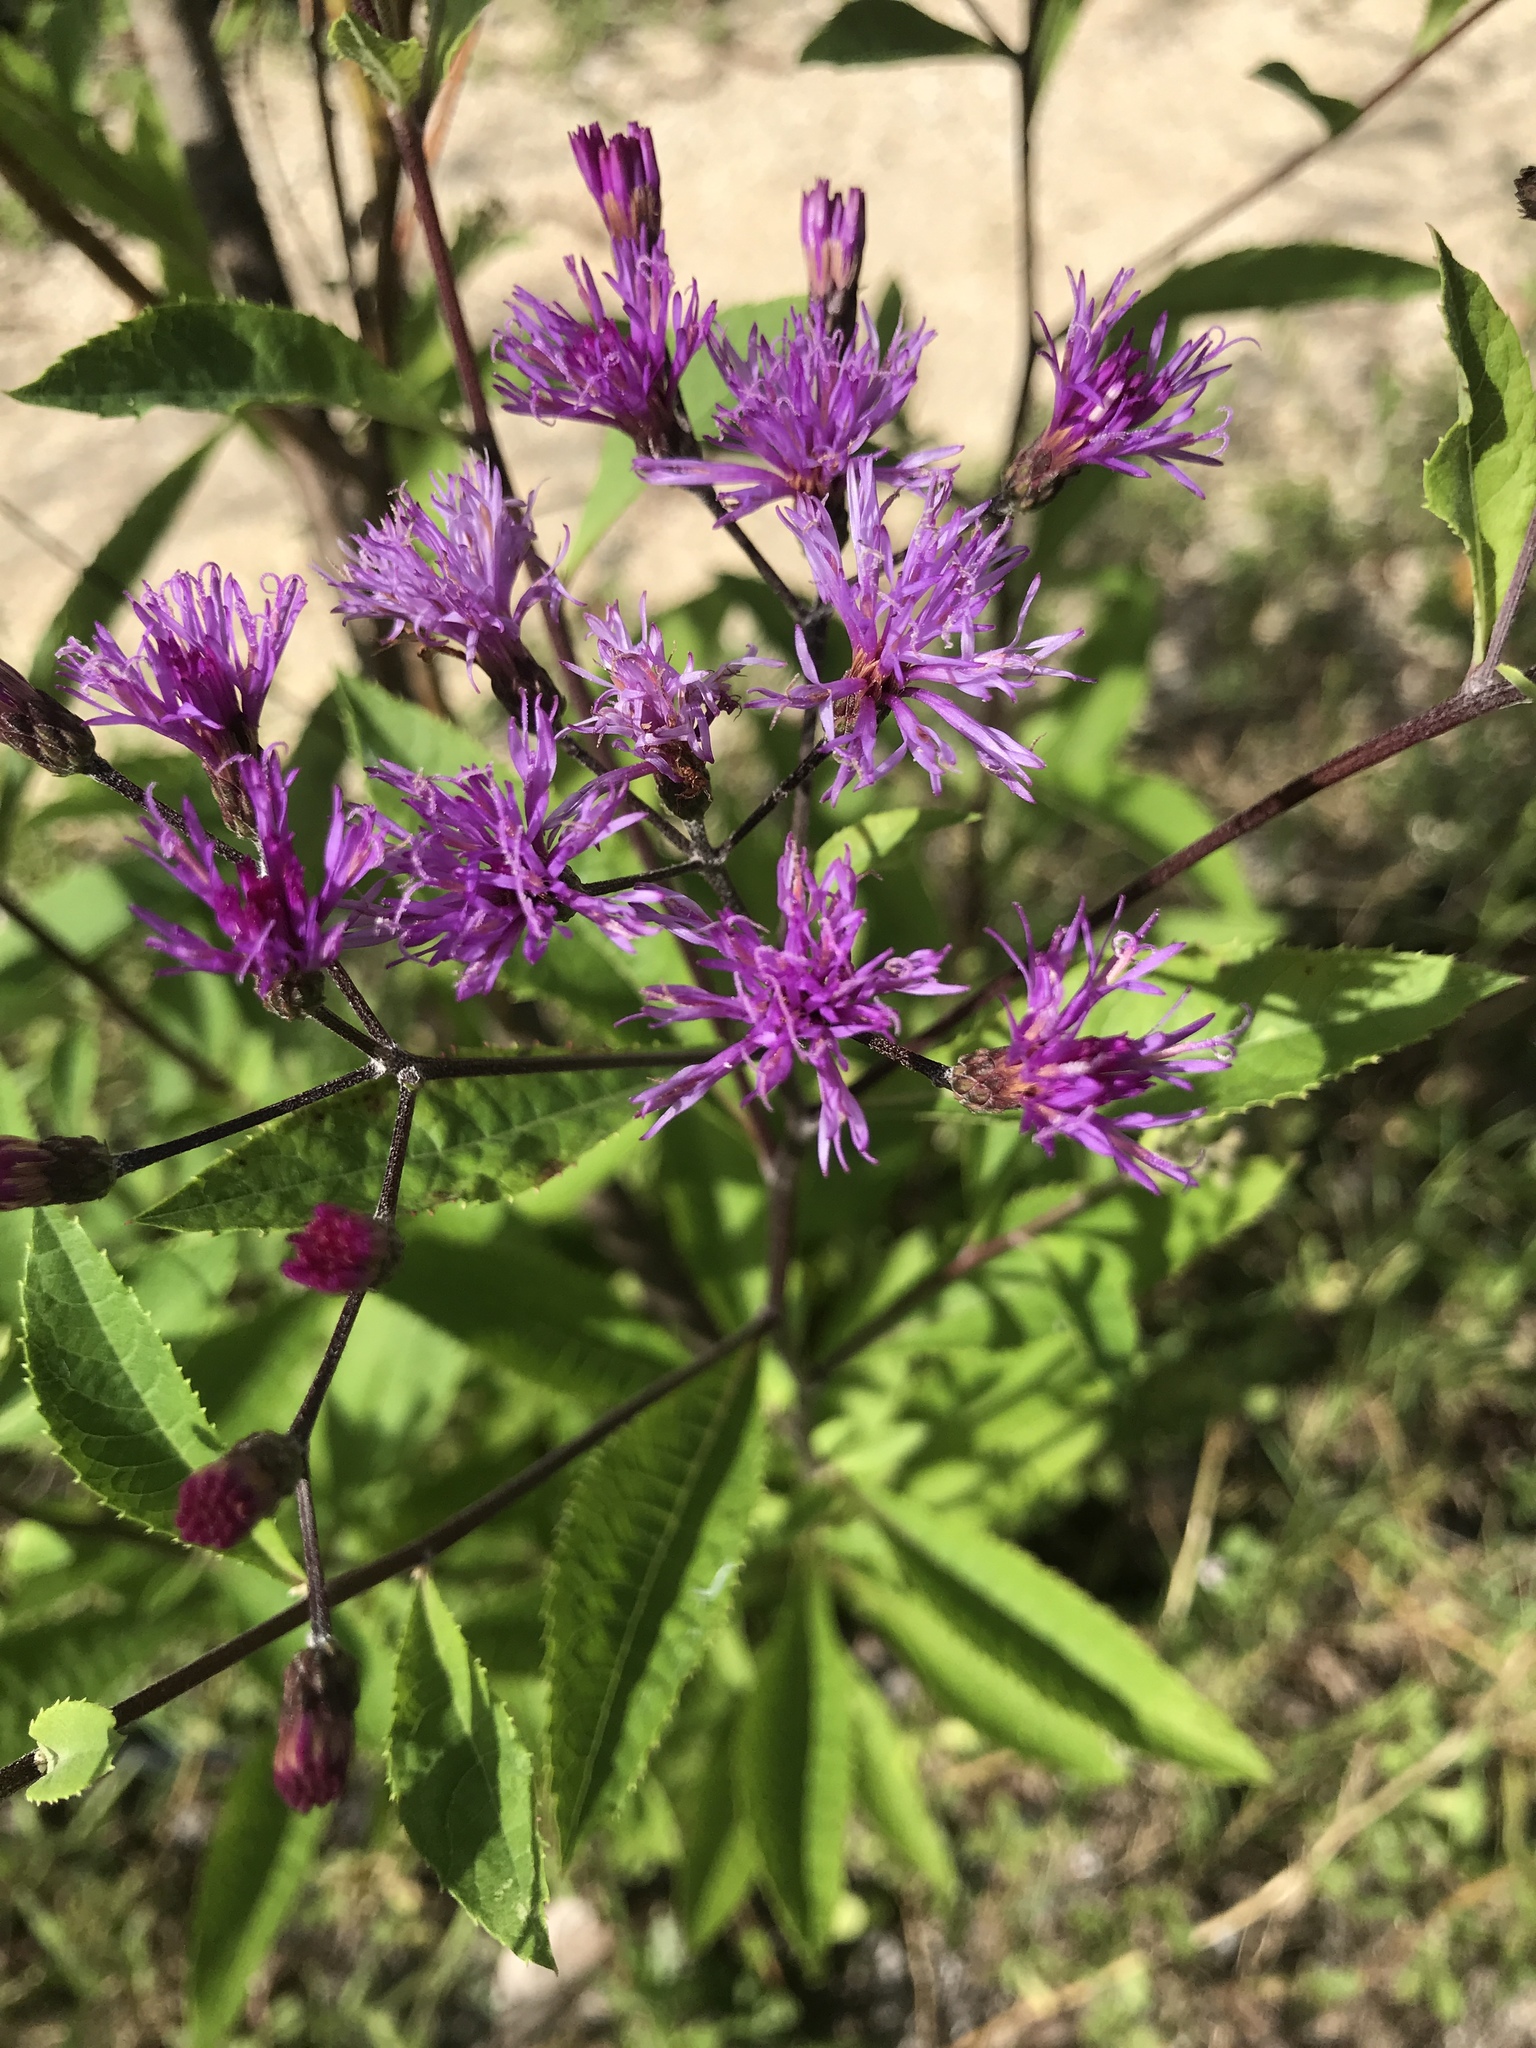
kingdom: Plantae
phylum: Tracheophyta
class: Magnoliopsida
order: Asterales
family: Asteraceae
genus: Vernonia
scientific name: Vernonia gigantea
